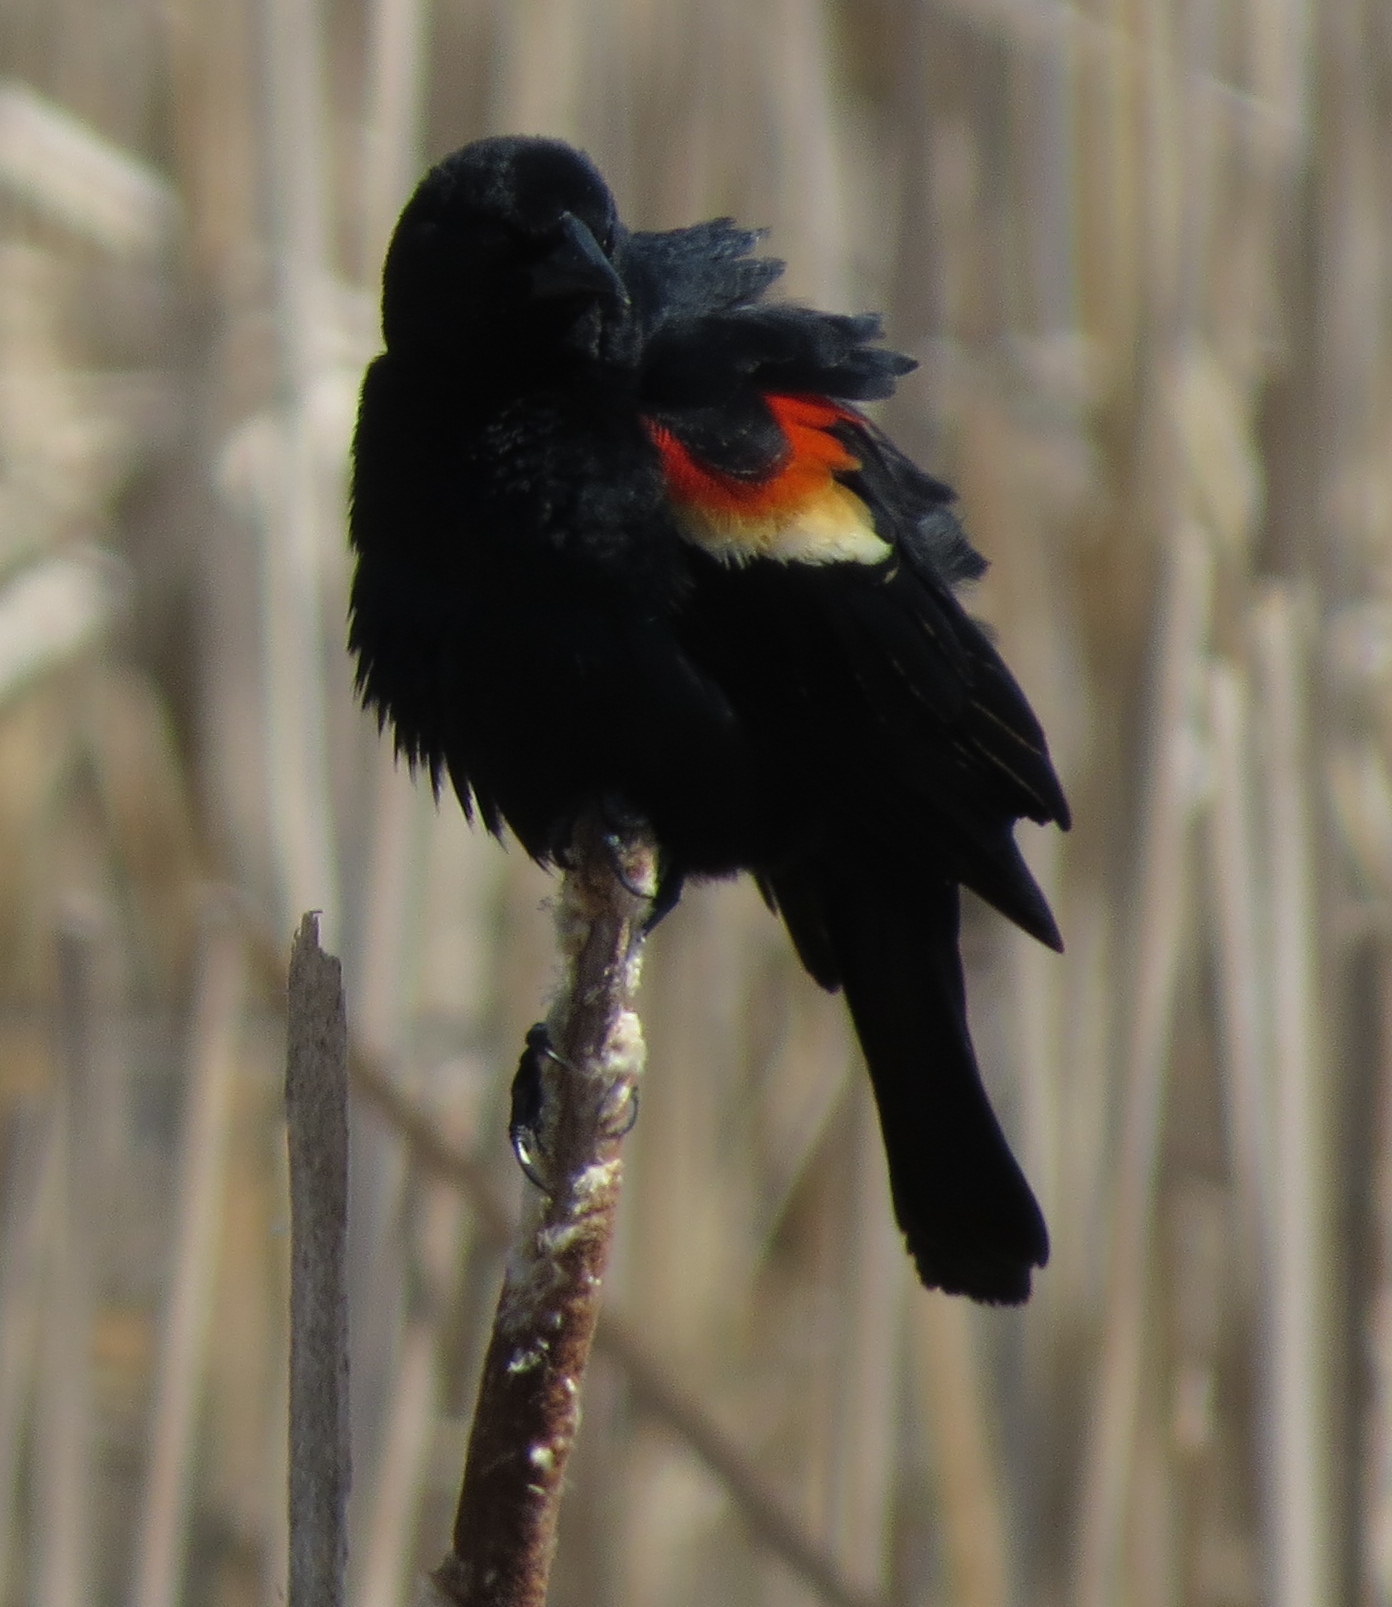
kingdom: Animalia
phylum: Chordata
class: Aves
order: Passeriformes
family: Icteridae
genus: Agelaius
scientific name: Agelaius phoeniceus
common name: Red-winged blackbird
